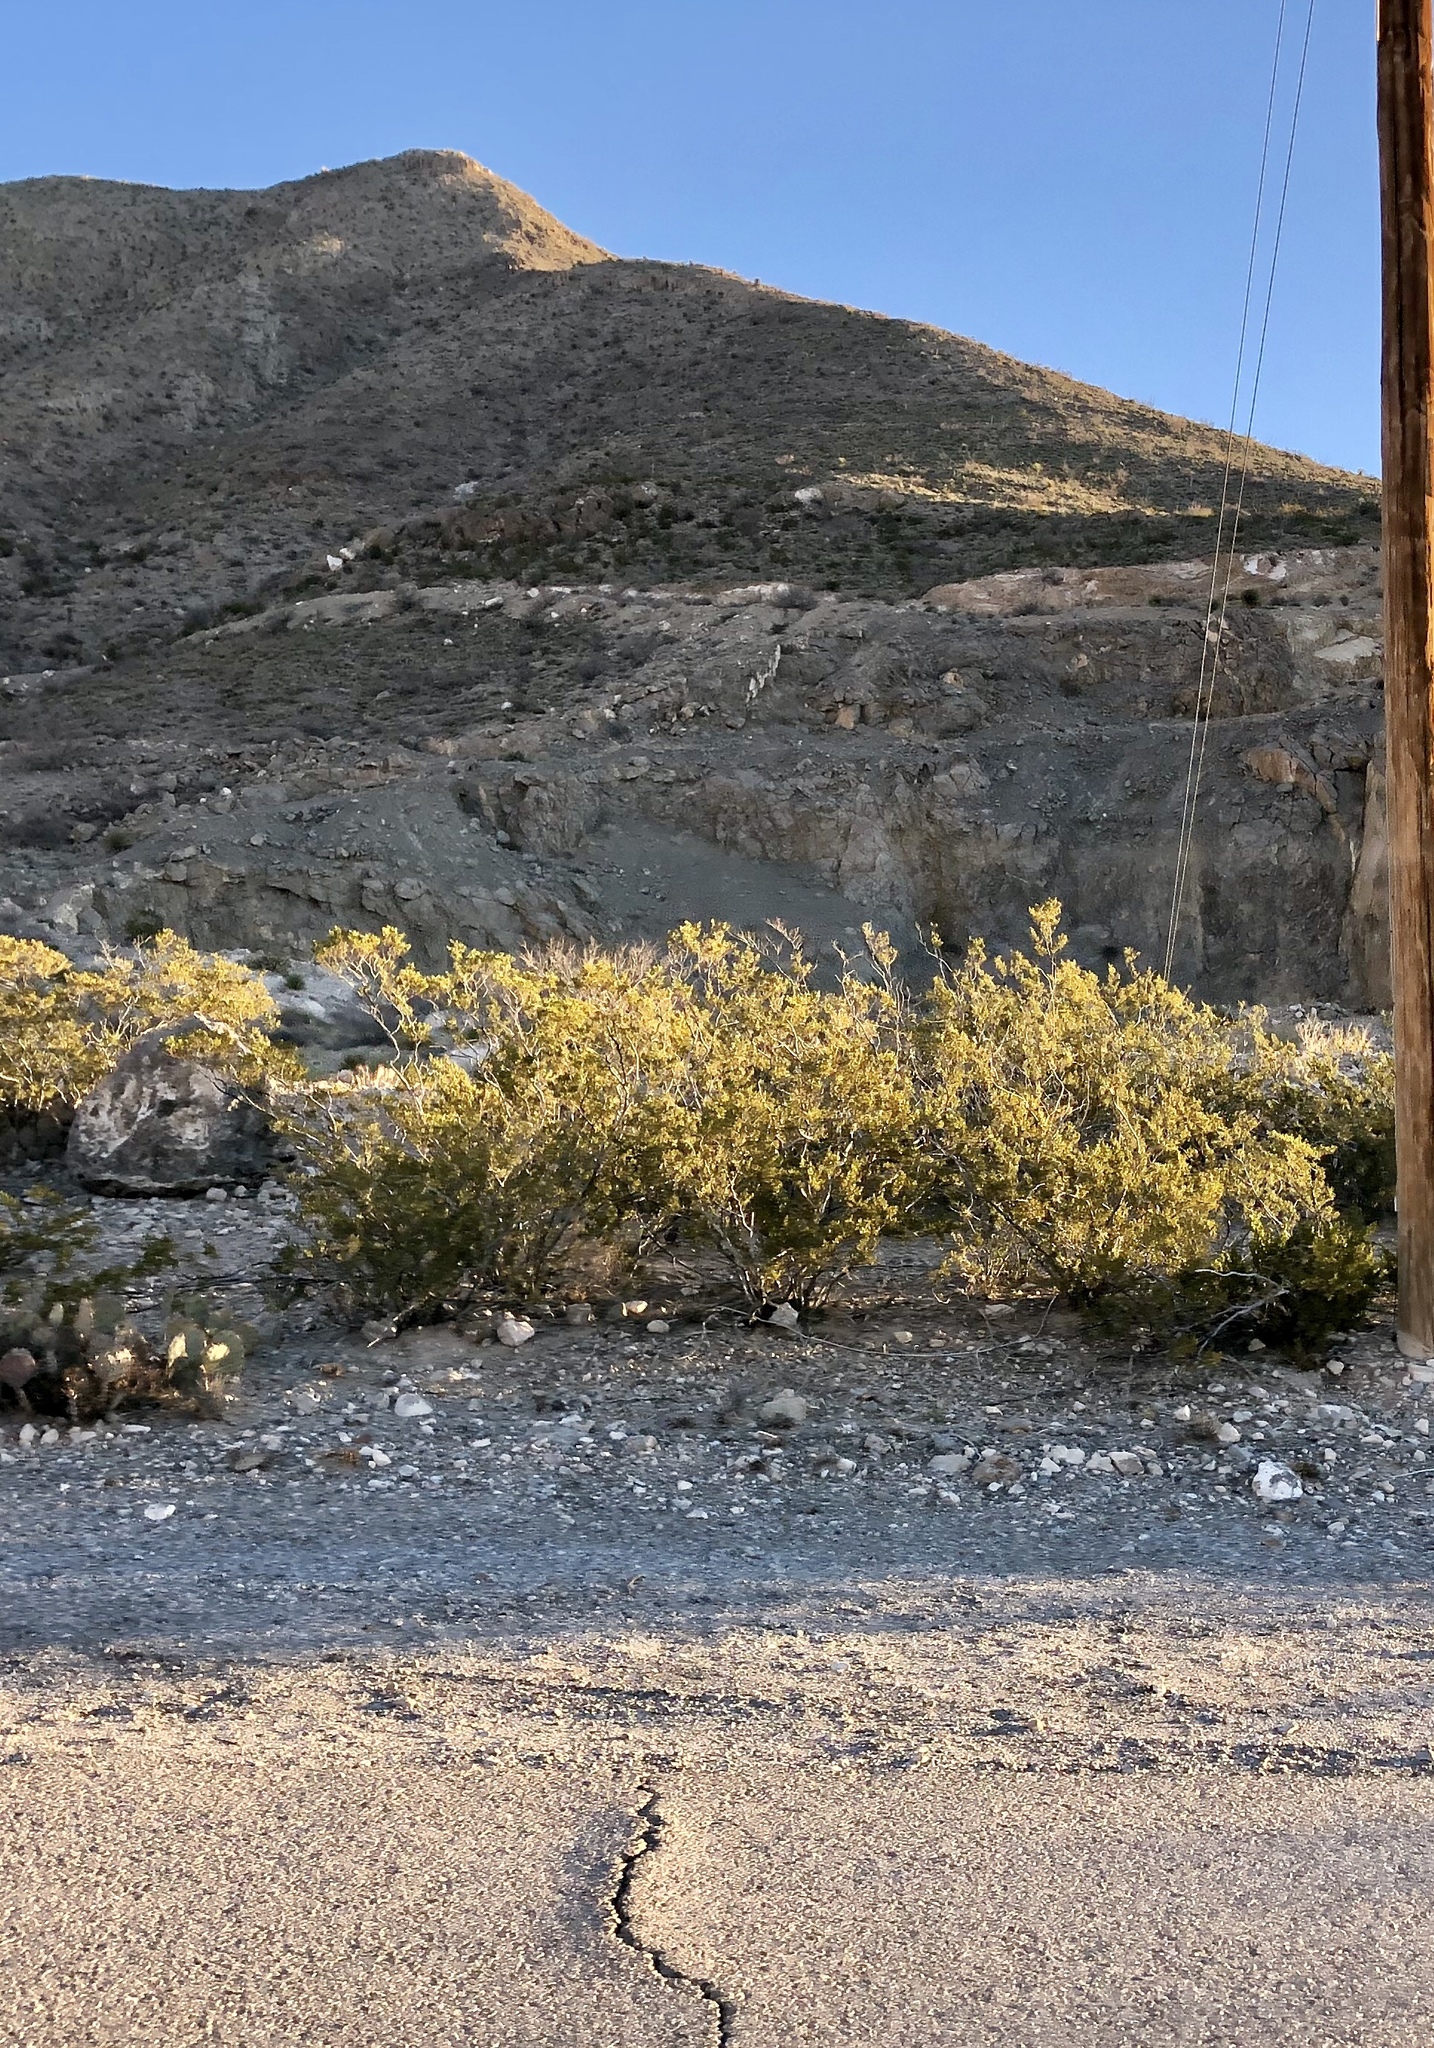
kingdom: Plantae
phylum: Tracheophyta
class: Magnoliopsida
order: Zygophyllales
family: Zygophyllaceae
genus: Larrea
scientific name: Larrea tridentata
